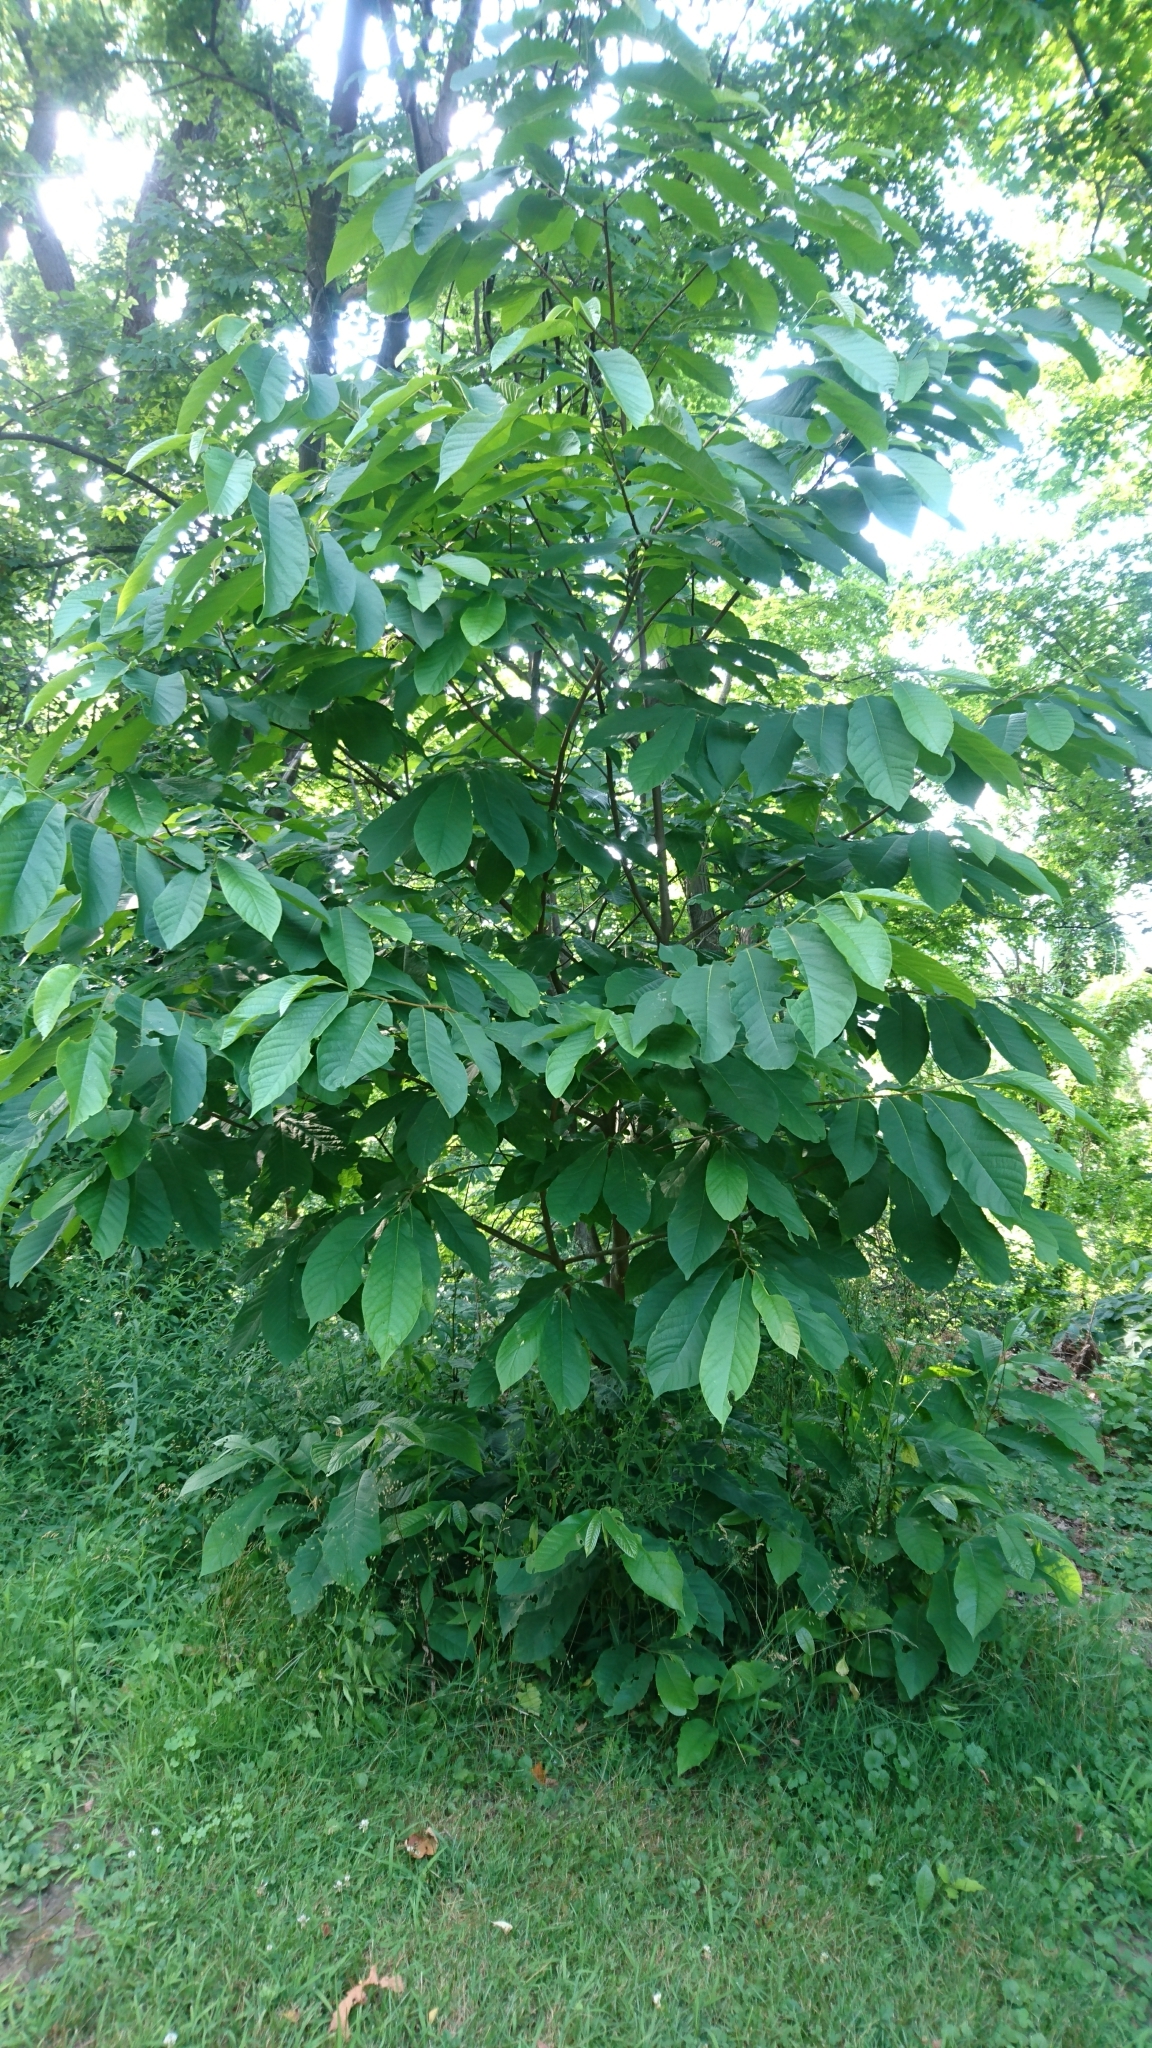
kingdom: Plantae
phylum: Tracheophyta
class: Magnoliopsida
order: Magnoliales
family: Annonaceae
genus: Asimina
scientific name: Asimina triloba
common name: Dog-banana
